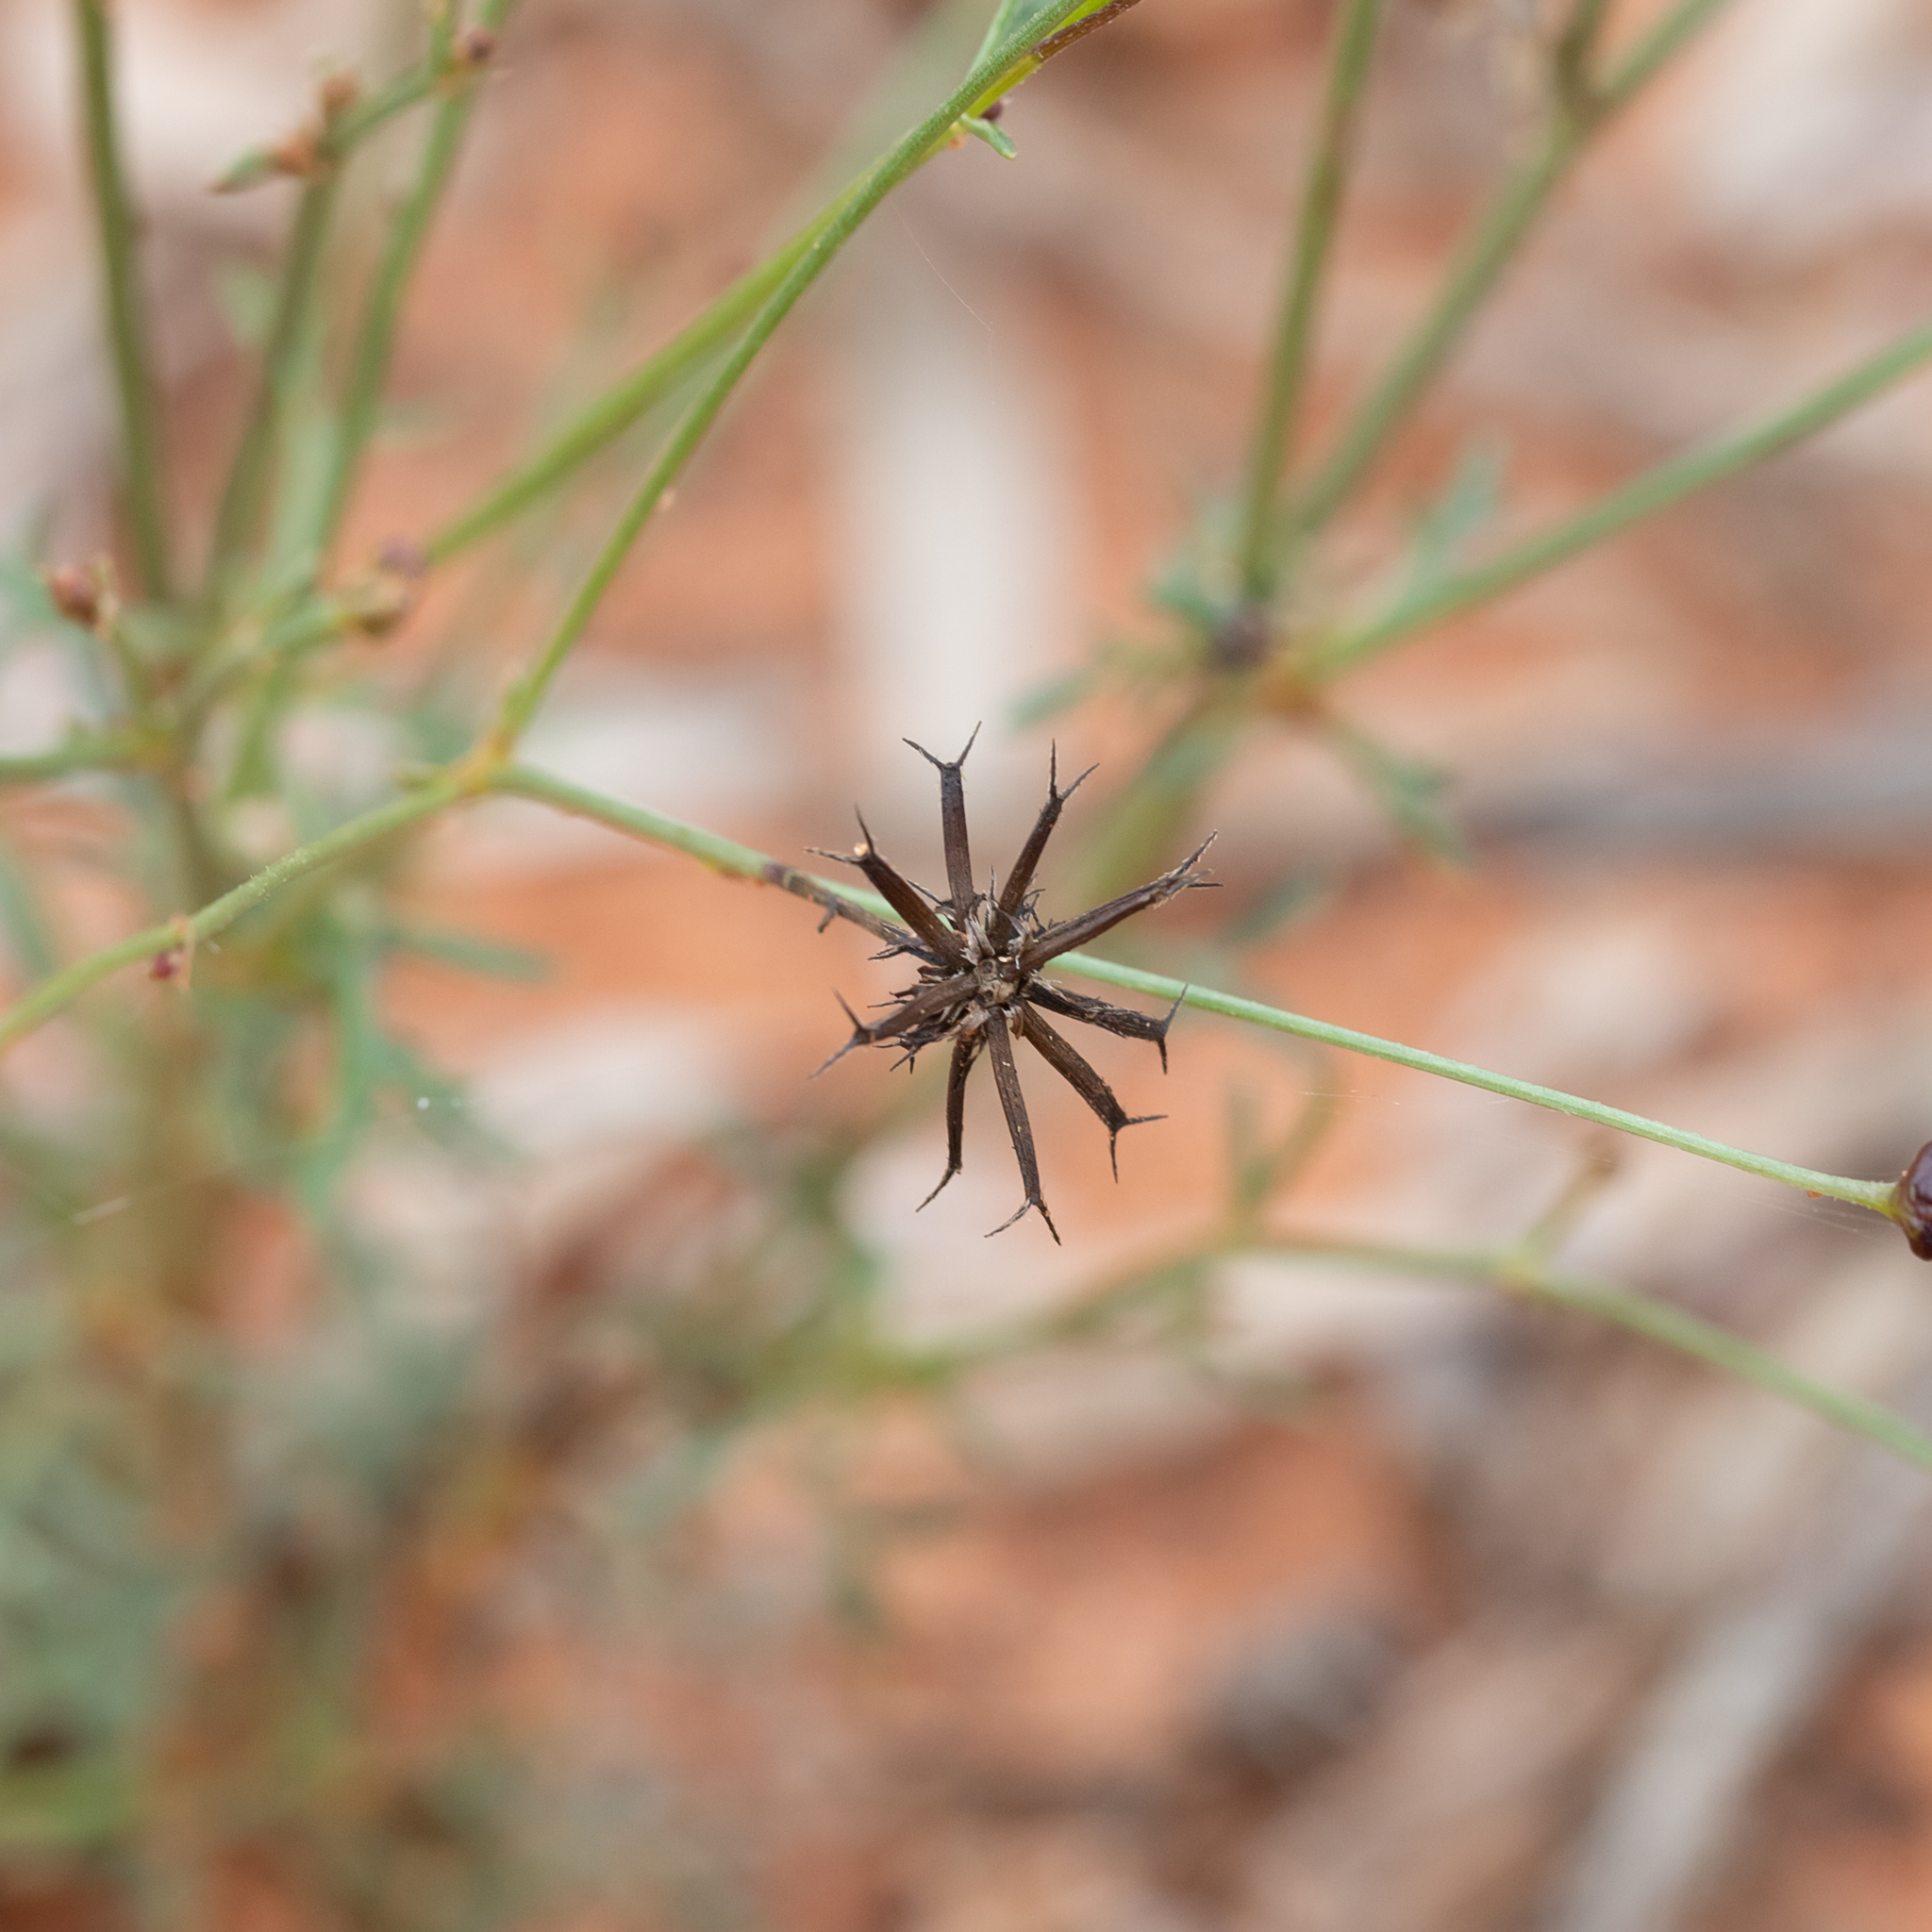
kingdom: Plantae
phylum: Tracheophyta
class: Magnoliopsida
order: Asterales
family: Asteraceae
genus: Glossocardia
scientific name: Glossocardia bidens
